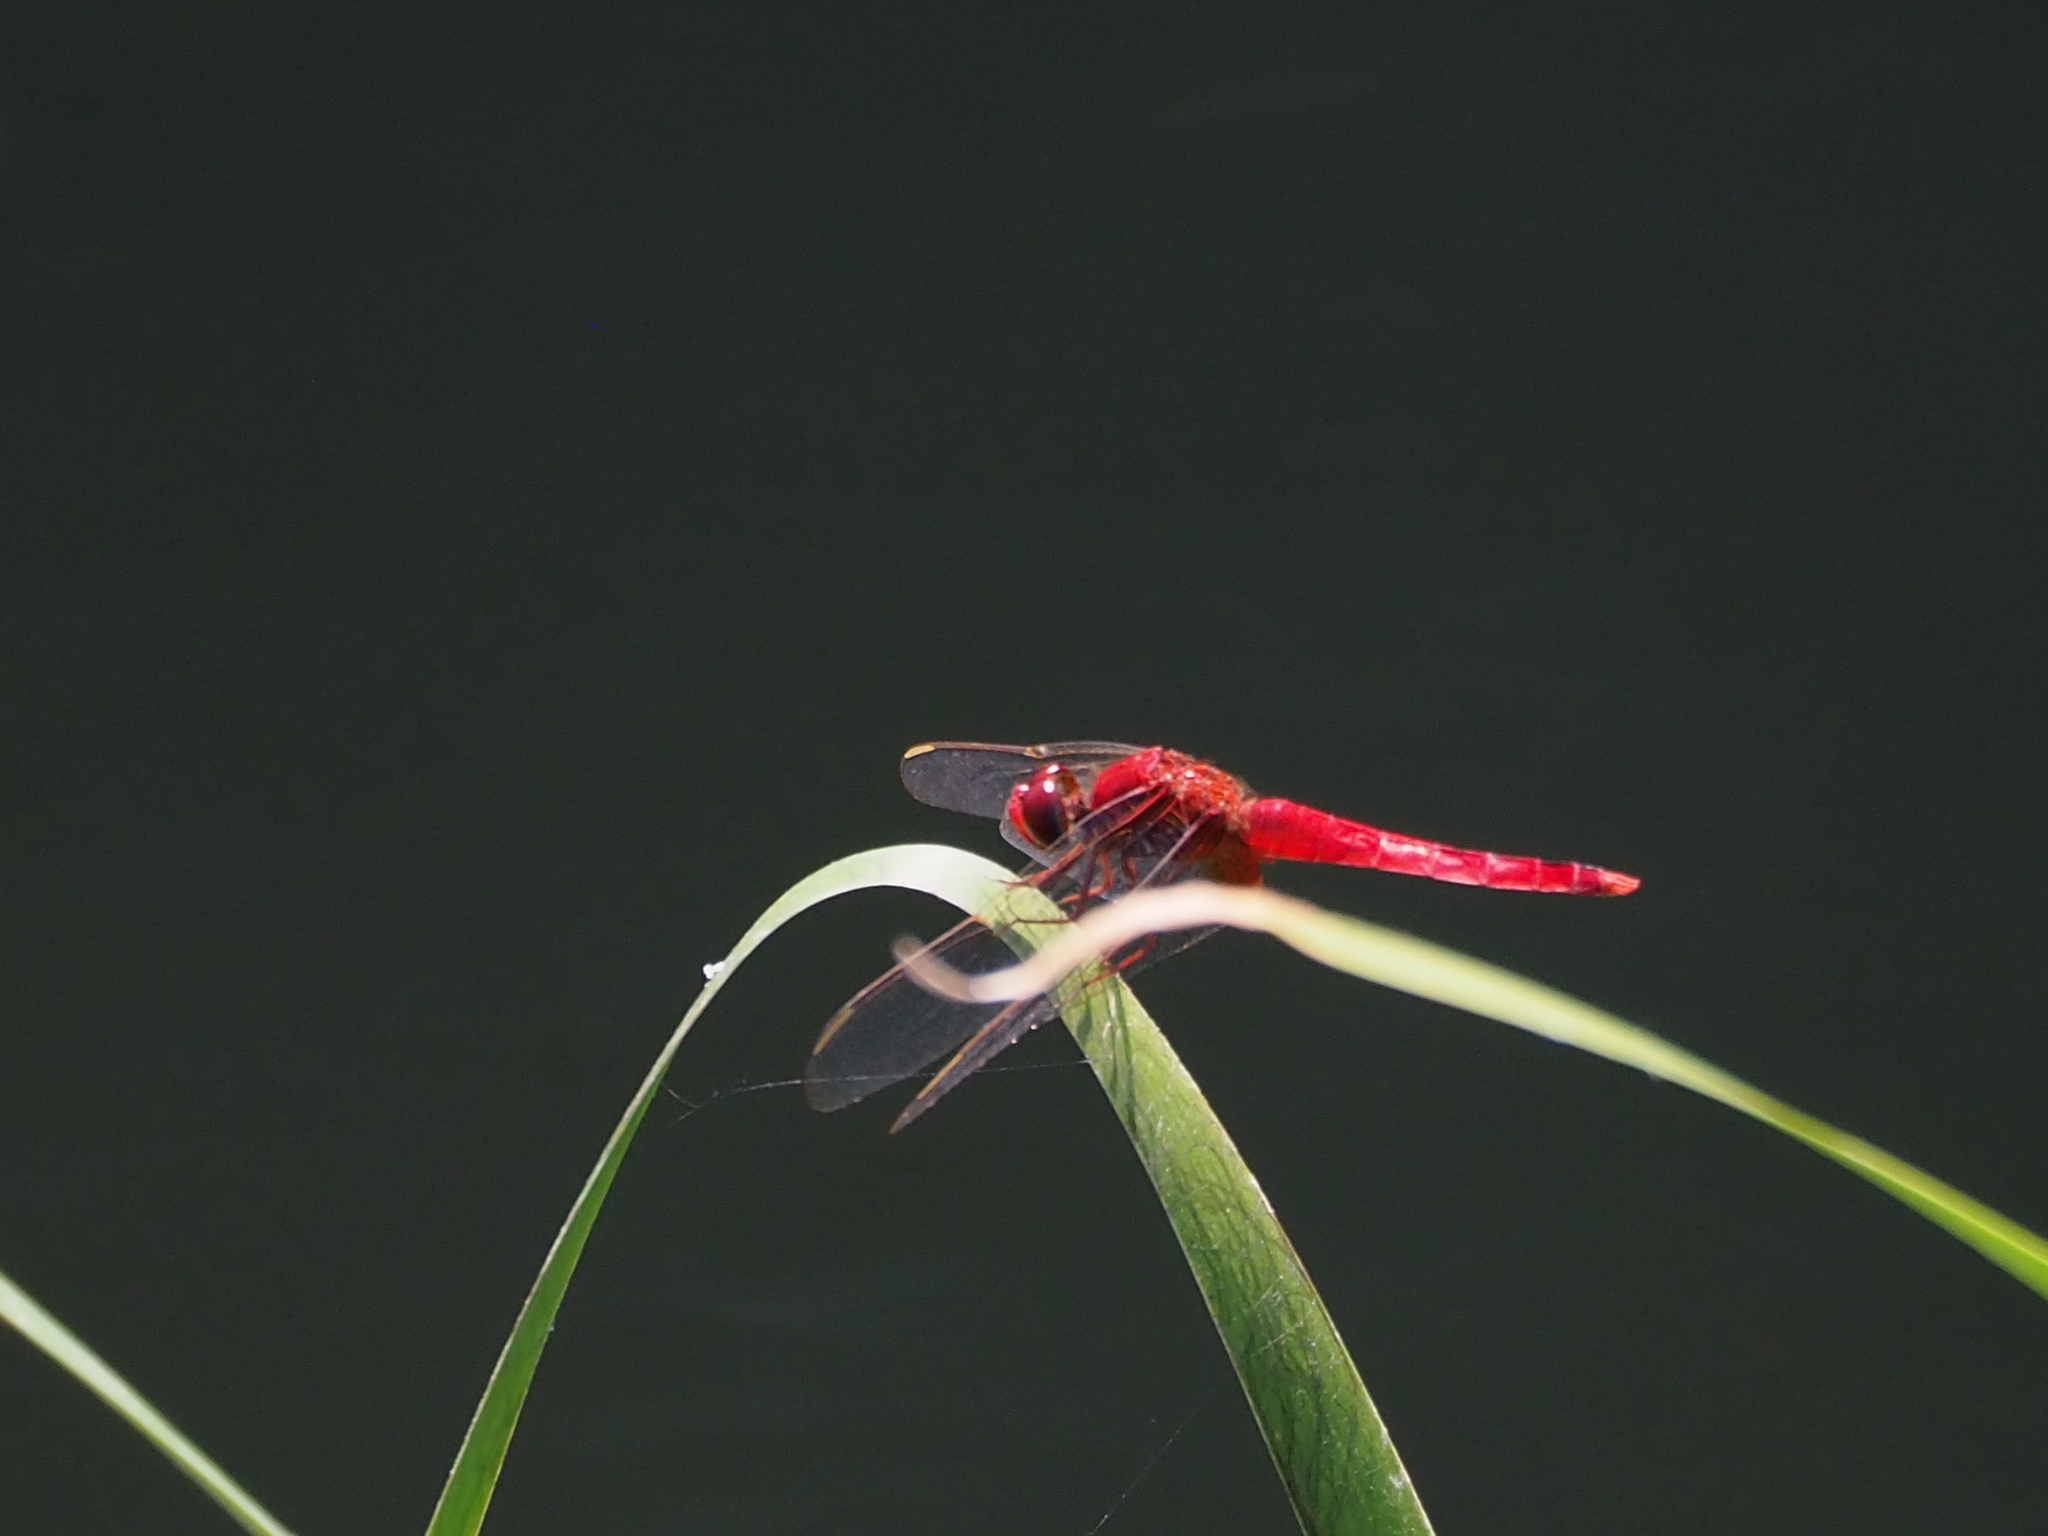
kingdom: Animalia
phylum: Arthropoda
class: Insecta
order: Odonata
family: Libellulidae
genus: Crocothemis
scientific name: Crocothemis servilia
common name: Scarlet skimmer
